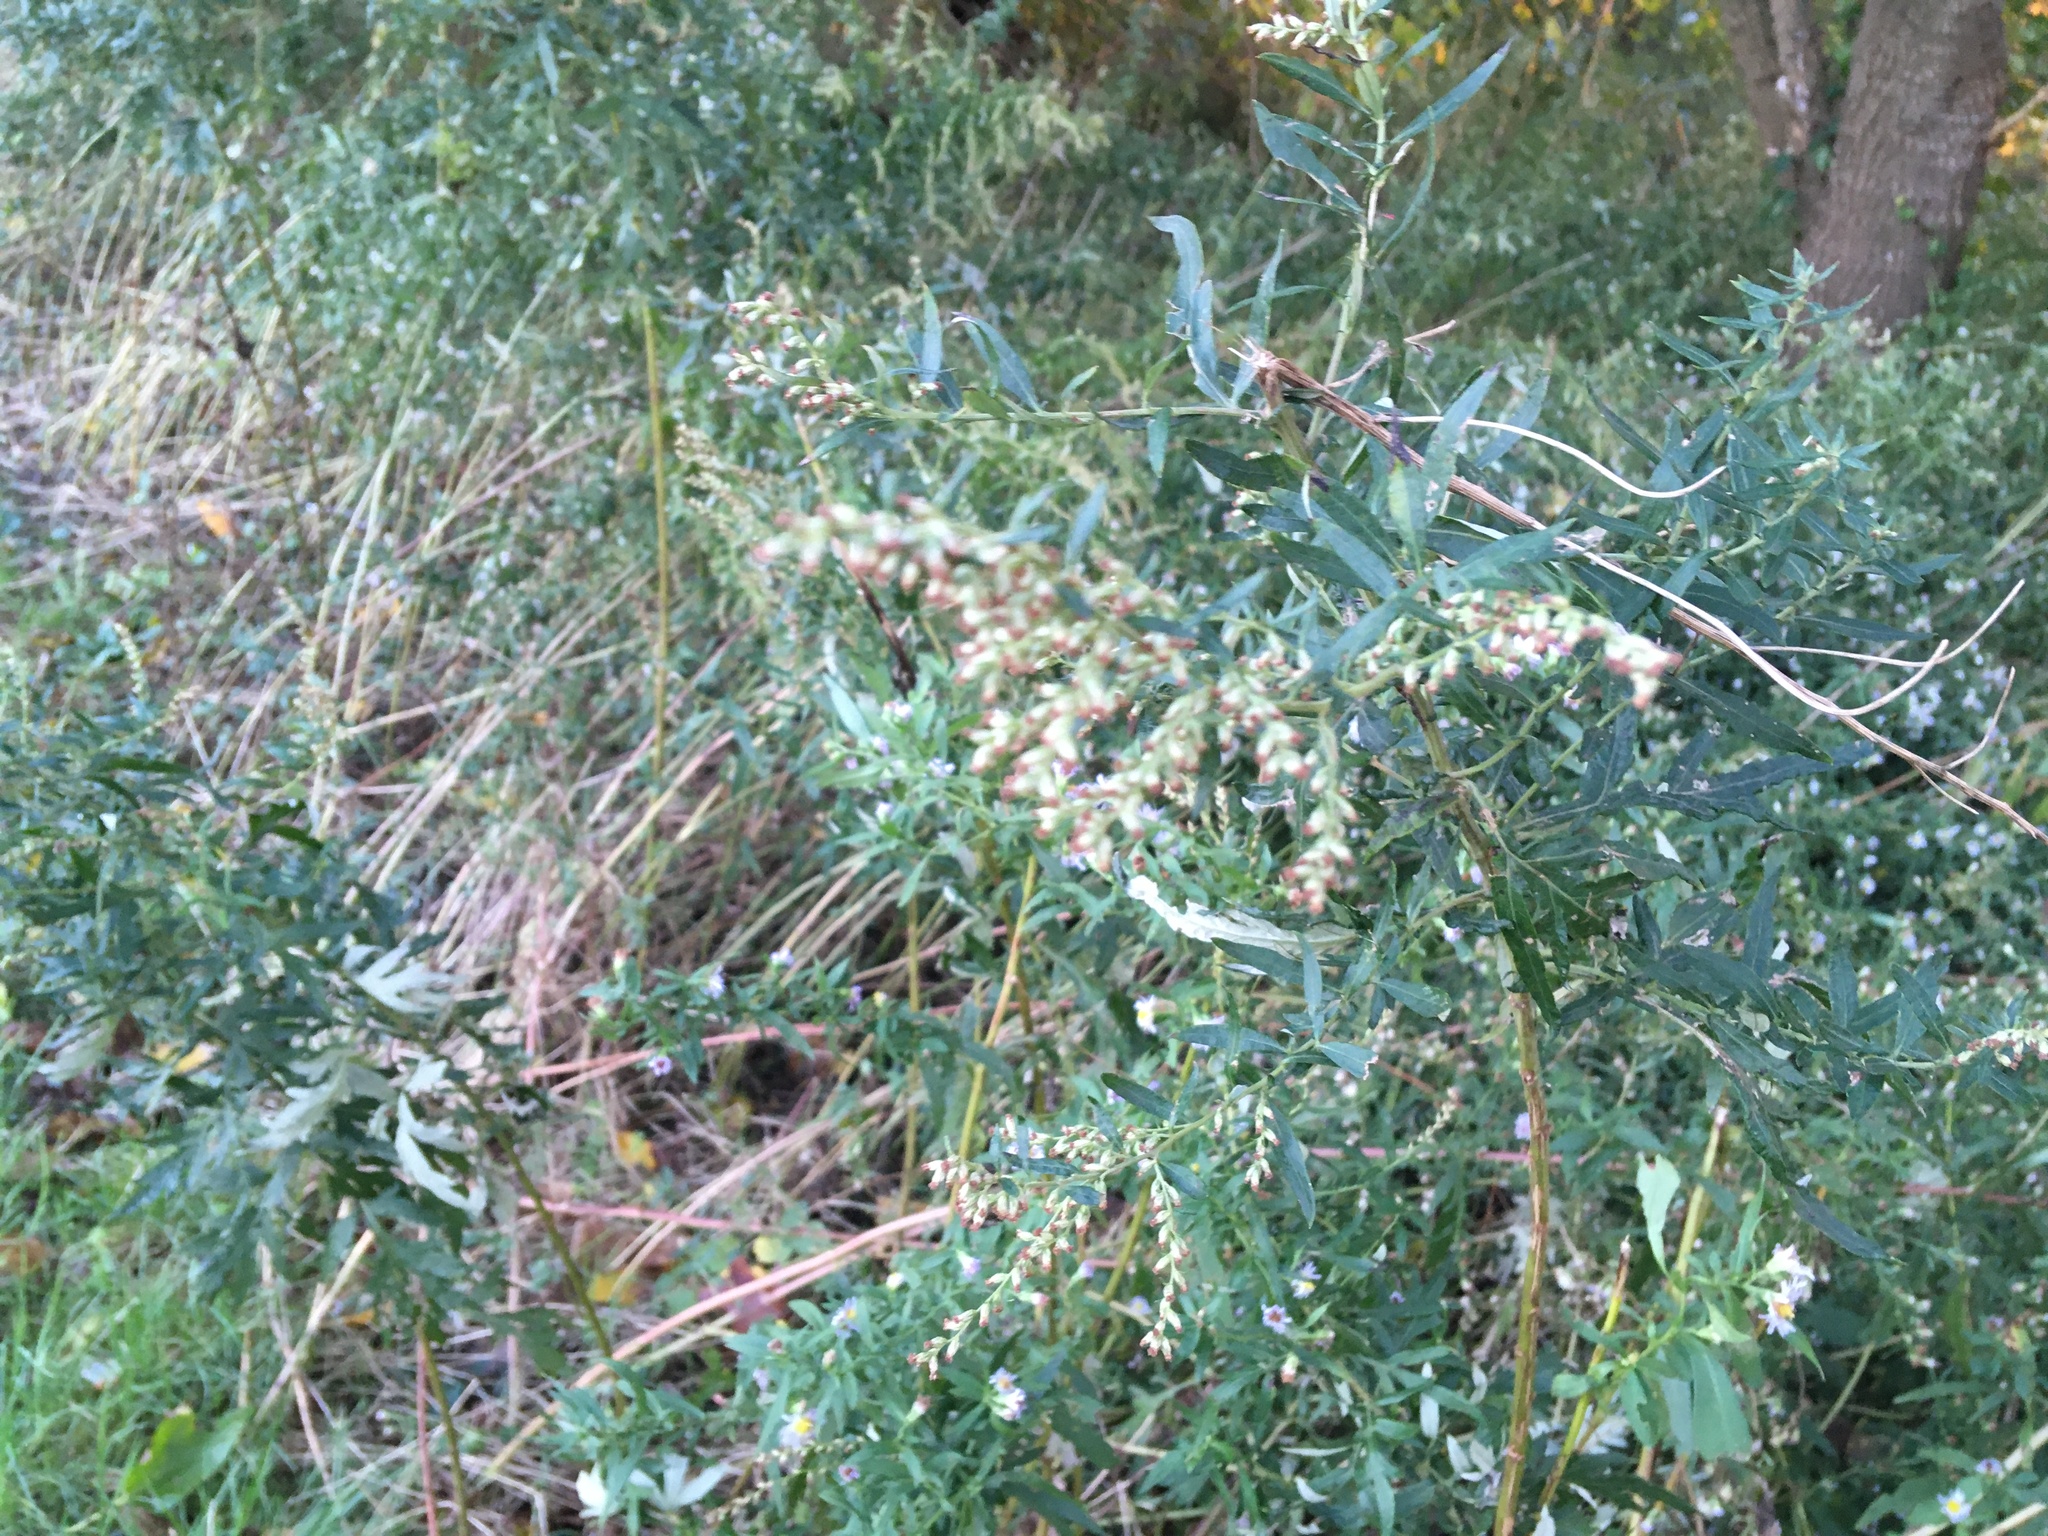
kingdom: Plantae
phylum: Tracheophyta
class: Magnoliopsida
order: Asterales
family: Asteraceae
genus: Artemisia
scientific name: Artemisia vulgaris
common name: Mugwort
